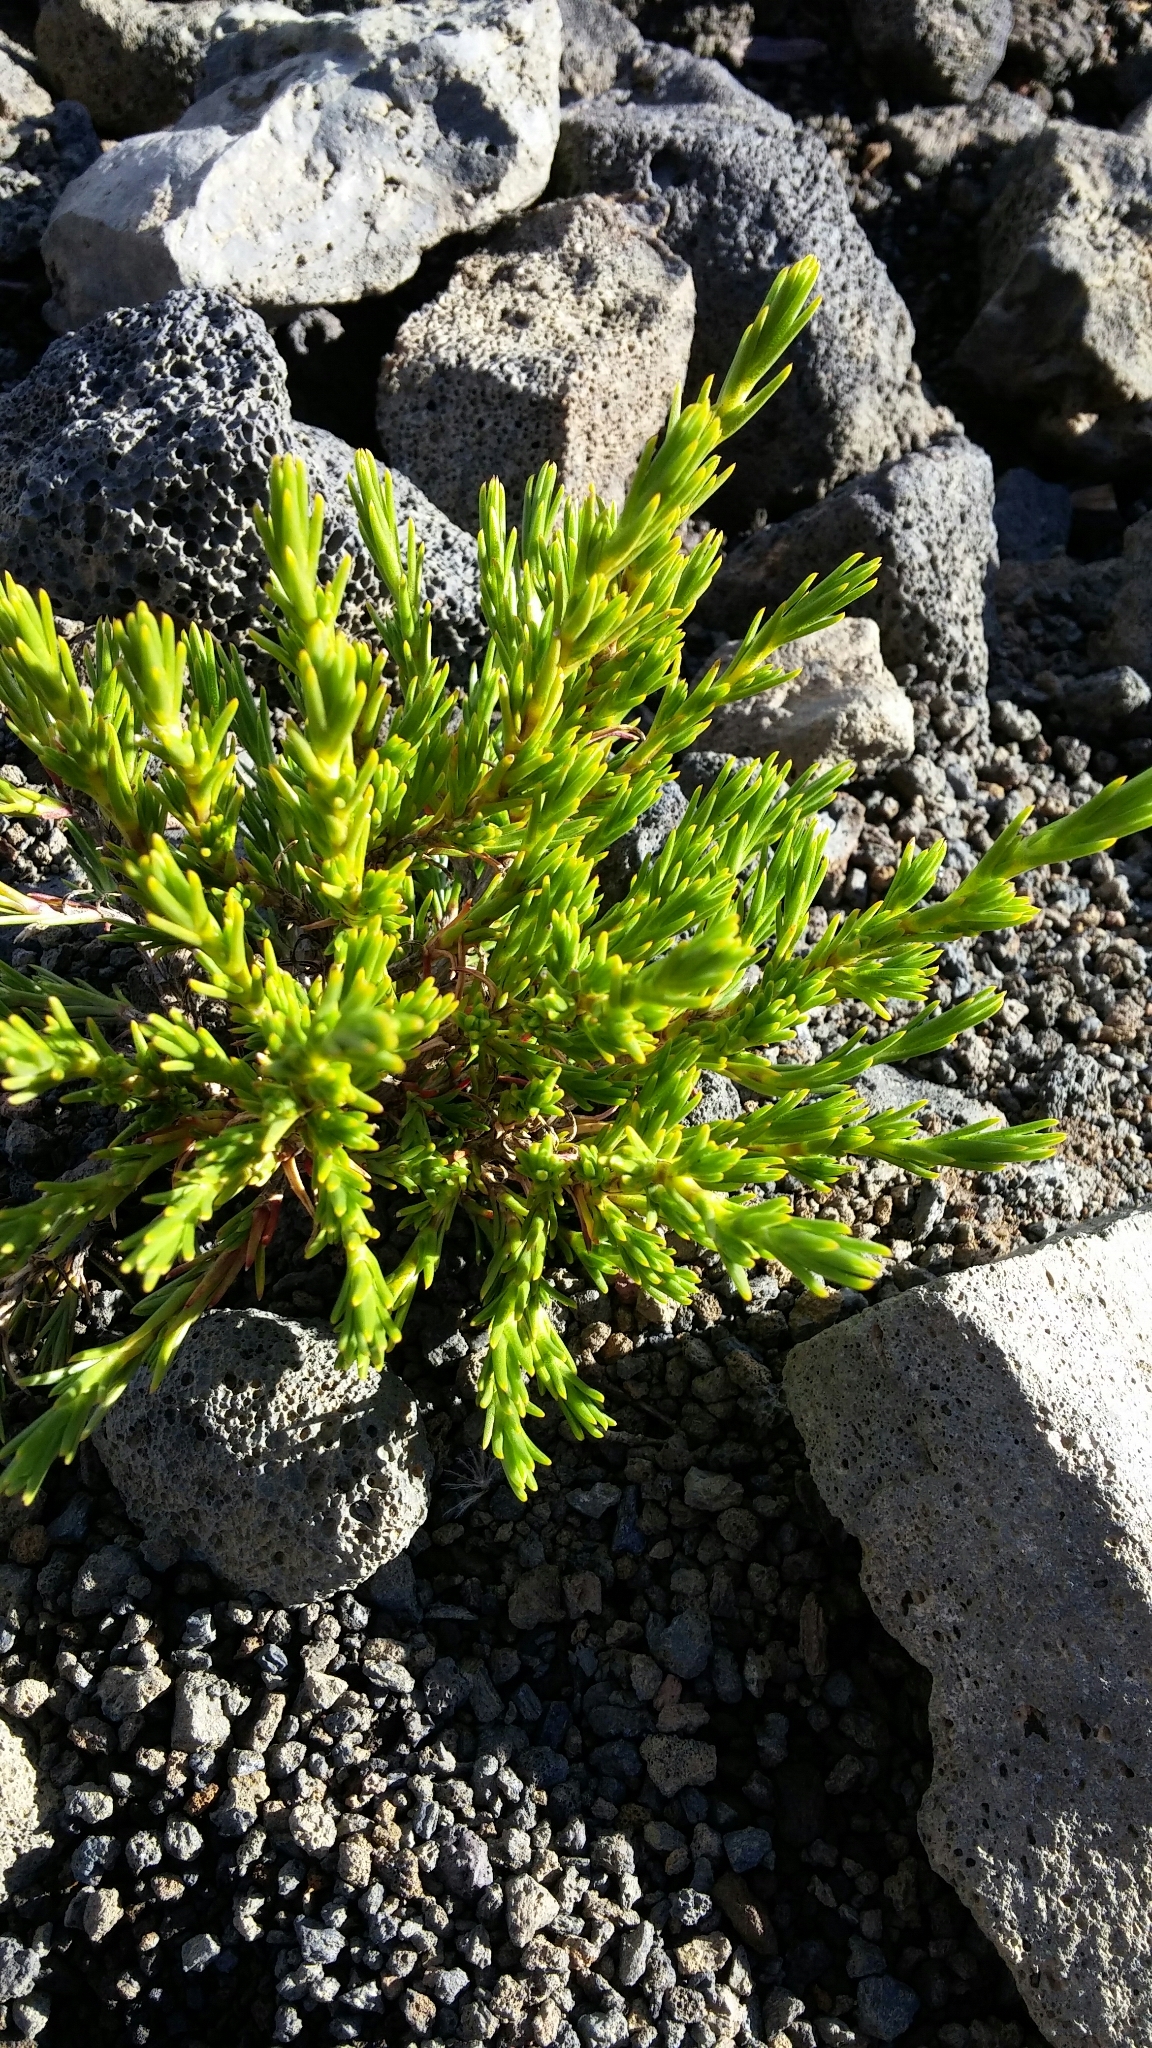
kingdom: Plantae
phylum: Tracheophyta
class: Magnoliopsida
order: Caryophyllales
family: Caryophyllaceae
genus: Silene
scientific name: Silene struthioloides
